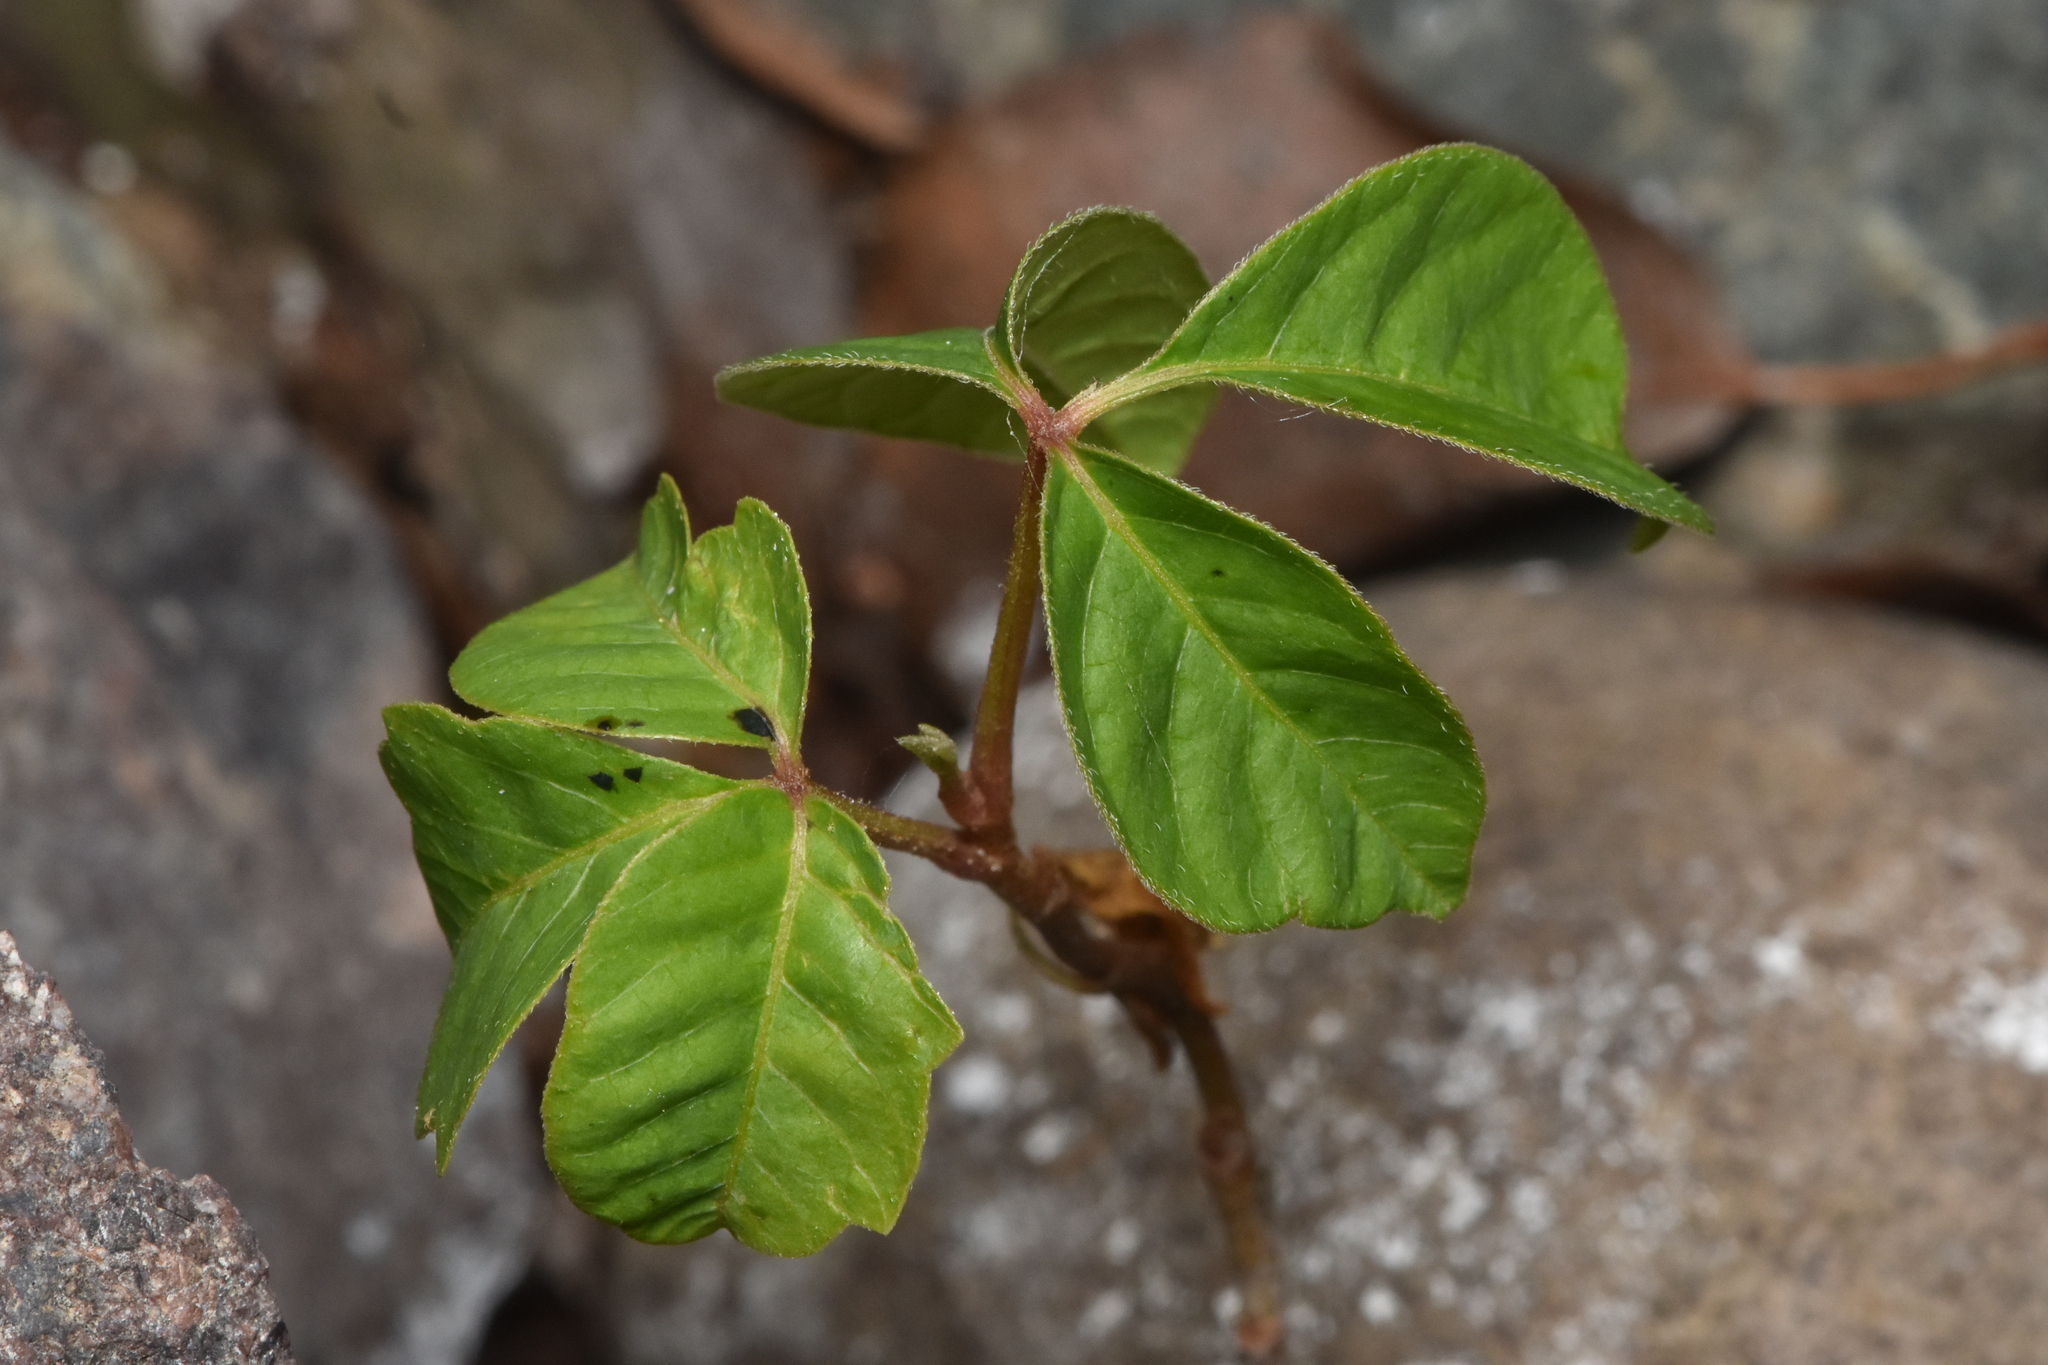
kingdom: Plantae
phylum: Tracheophyta
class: Magnoliopsida
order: Sapindales
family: Anacardiaceae
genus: Toxicodendron
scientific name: Toxicodendron rydbergii
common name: Rydberg's poison-ivy
